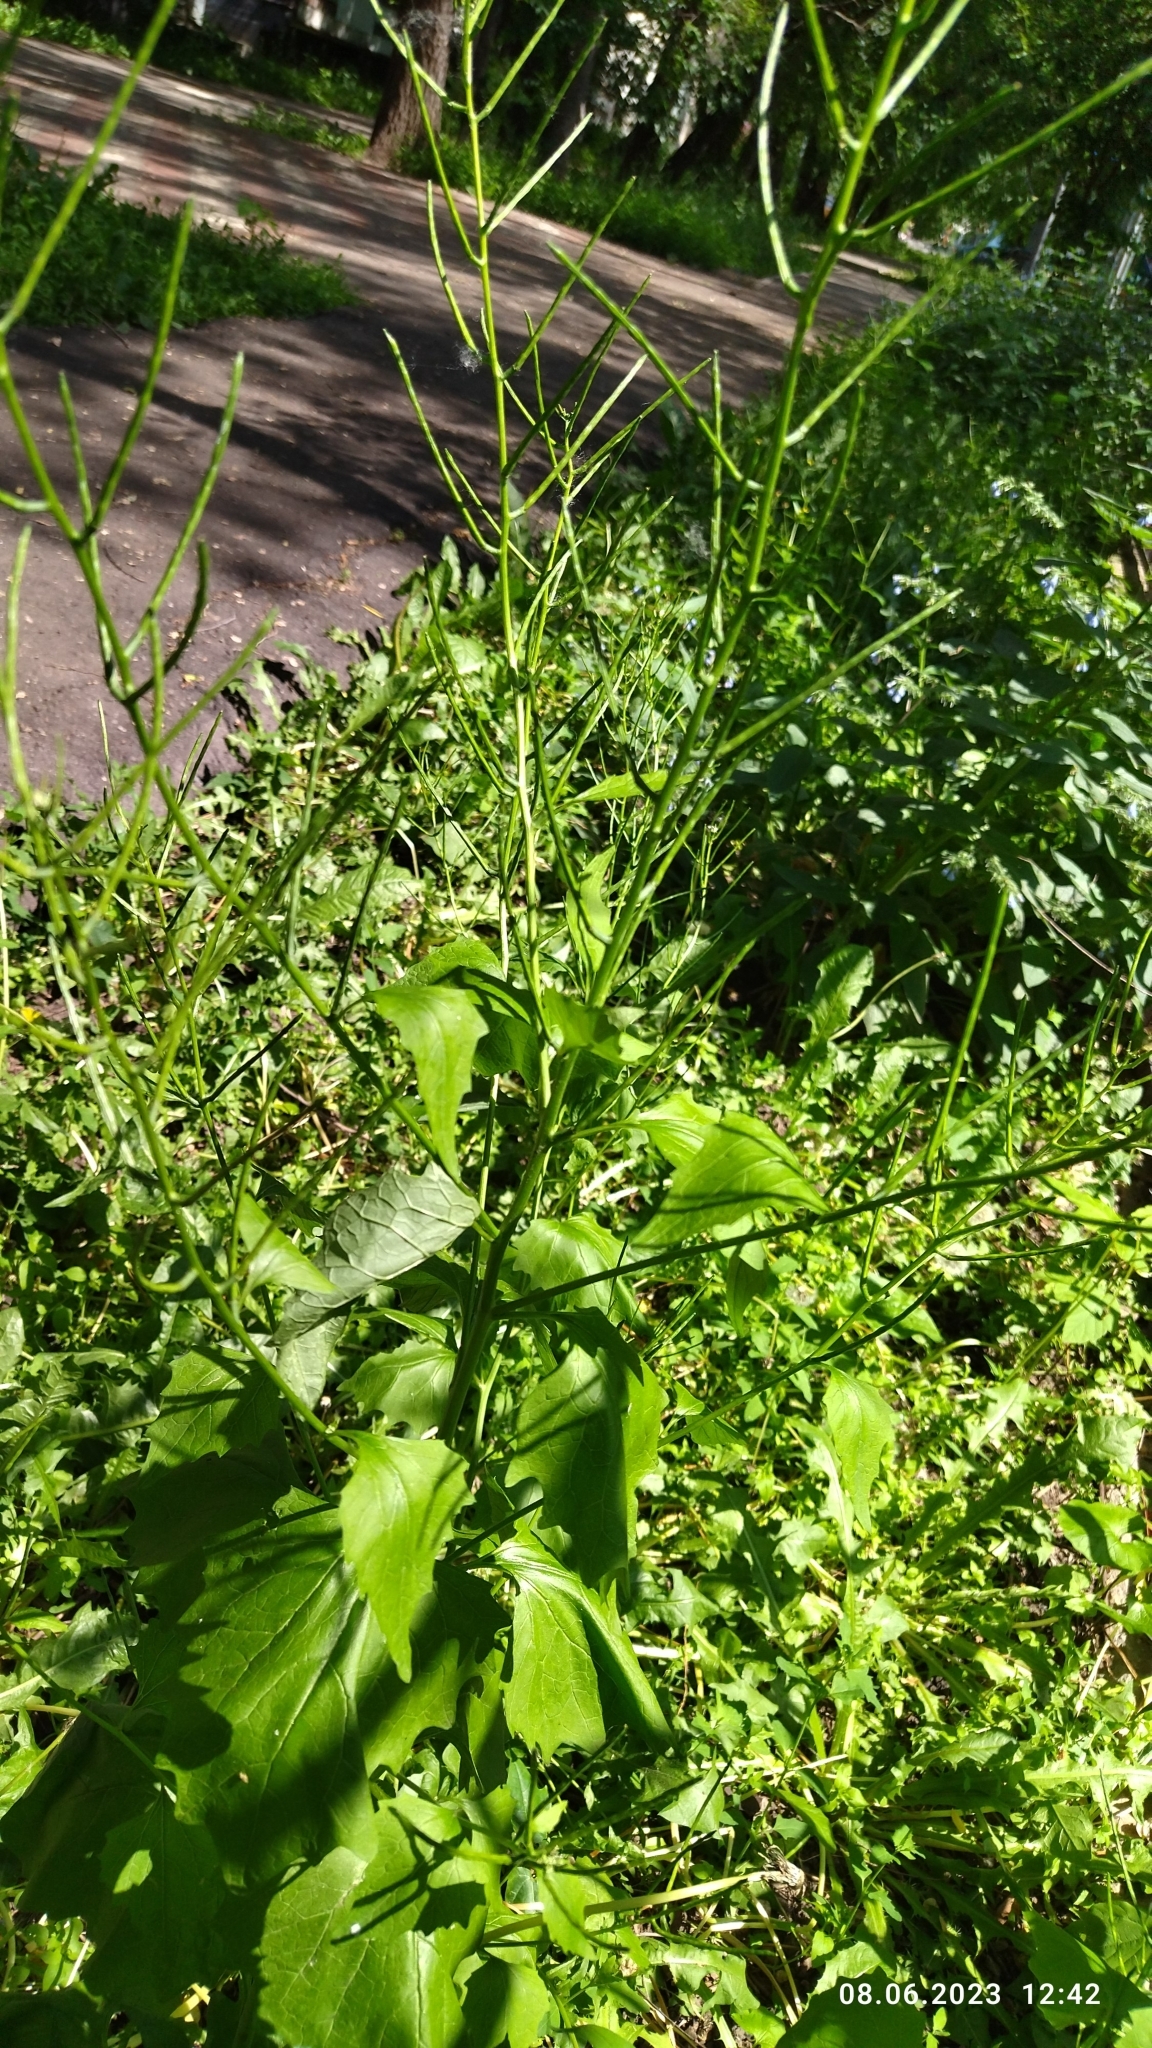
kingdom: Plantae
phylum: Tracheophyta
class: Magnoliopsida
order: Brassicales
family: Brassicaceae
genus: Alliaria
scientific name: Alliaria petiolata
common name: Garlic mustard
